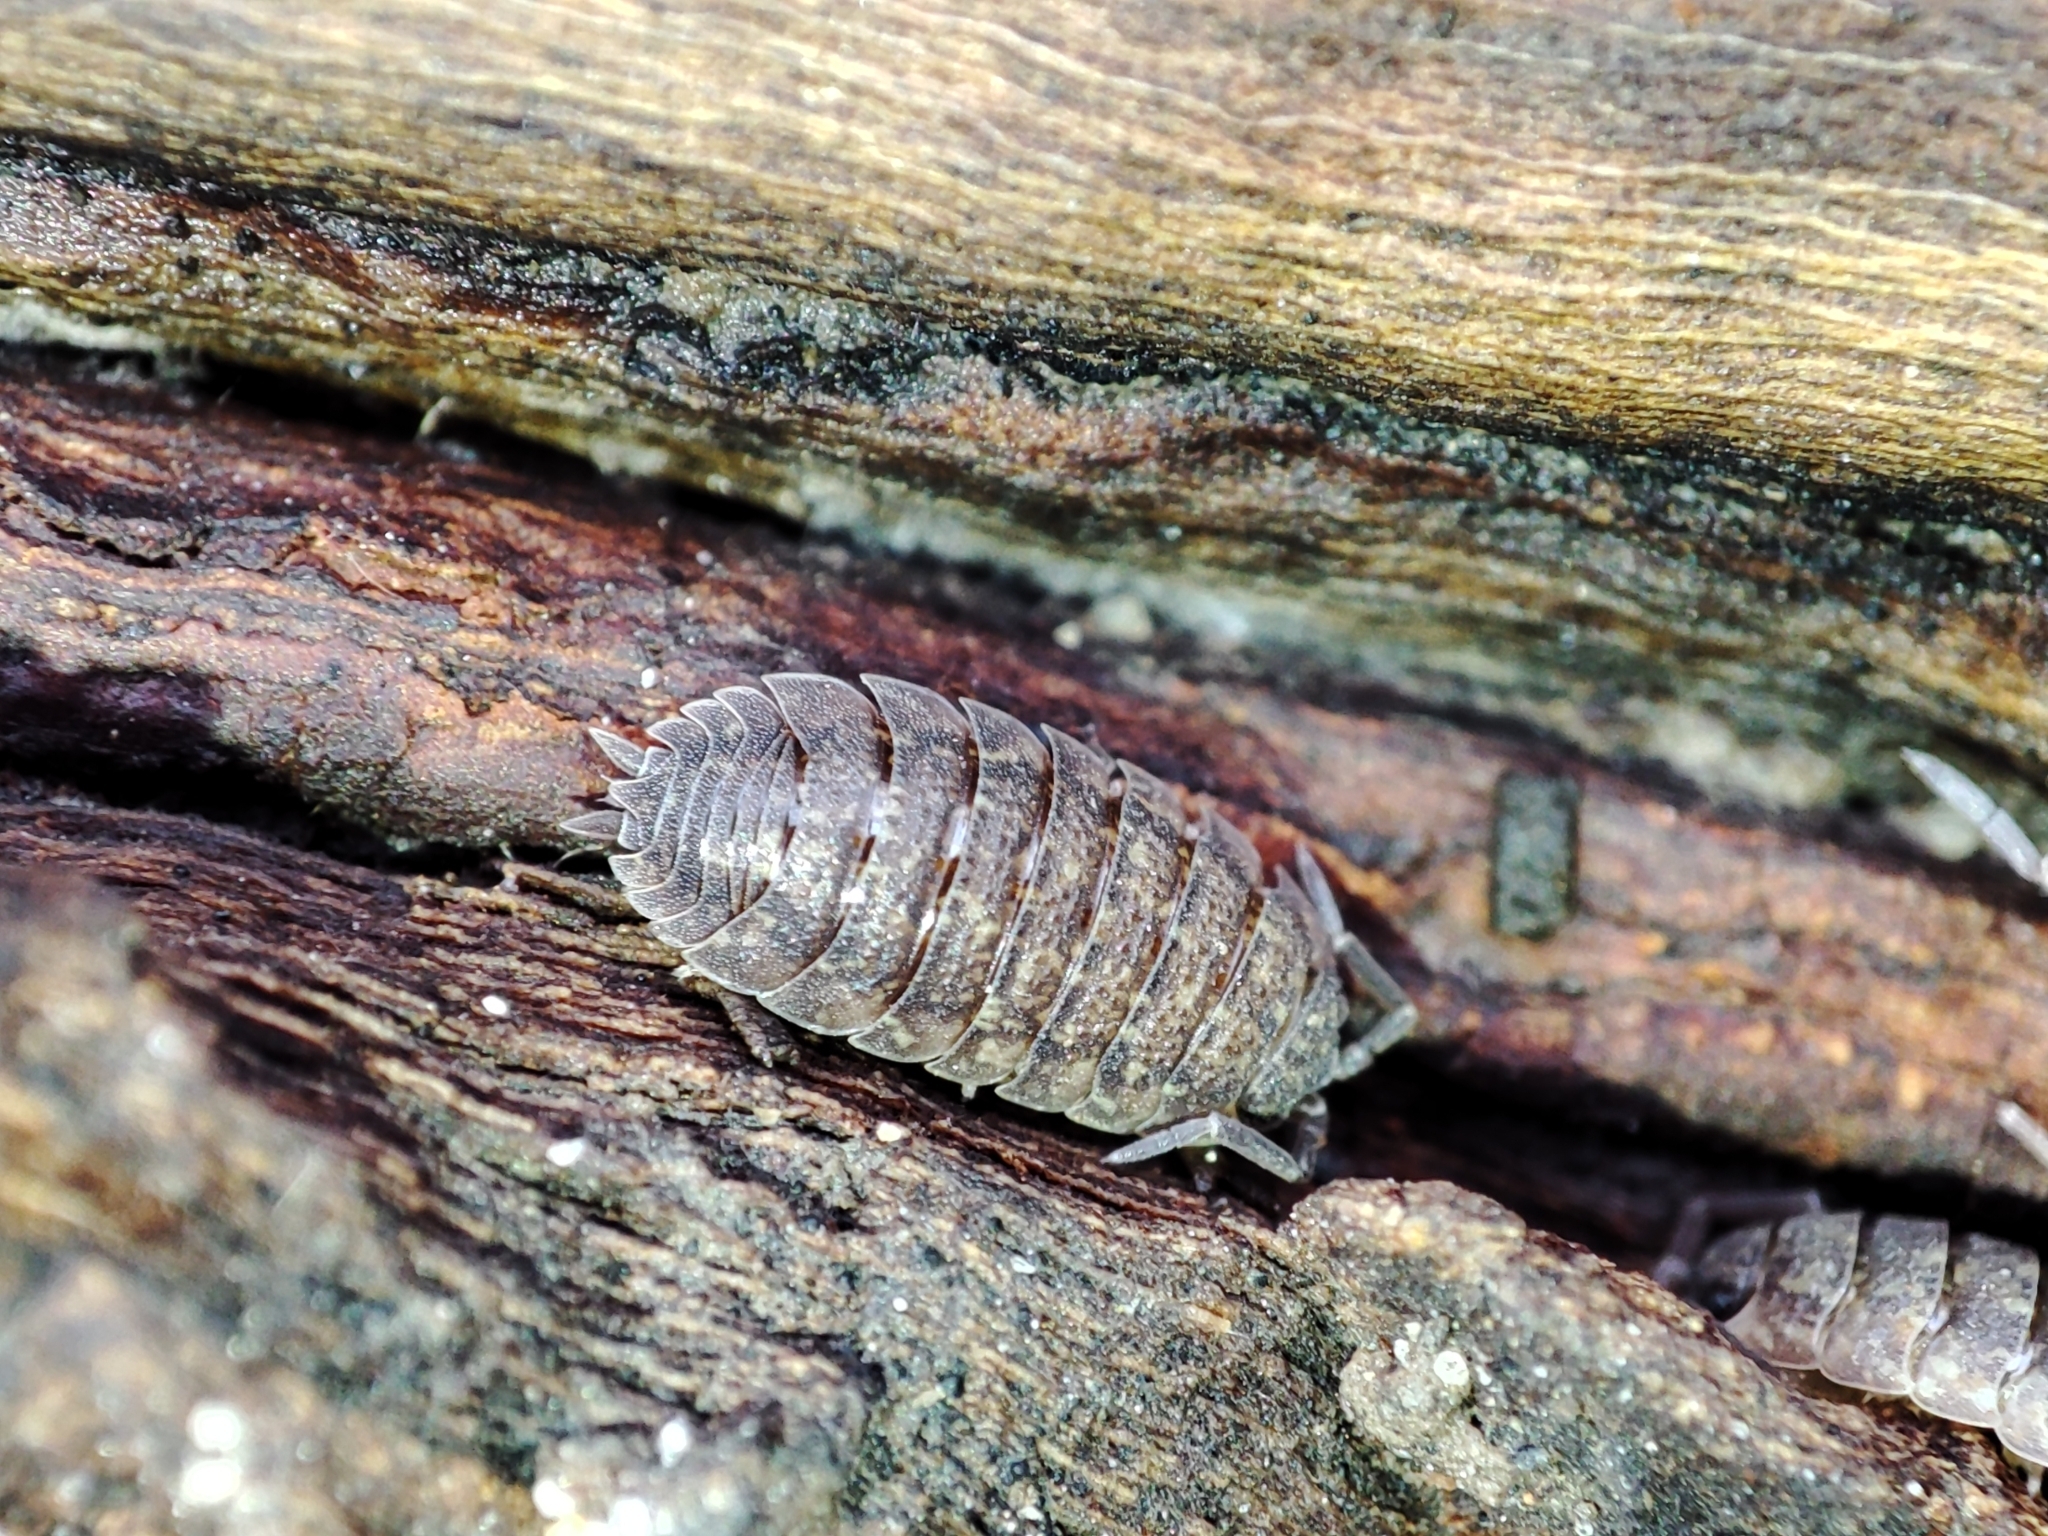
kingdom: Animalia
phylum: Arthropoda
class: Malacostraca
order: Isopoda
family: Porcellionidae
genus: Porcellio
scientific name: Porcellio scaber
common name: Common rough woodlouse
